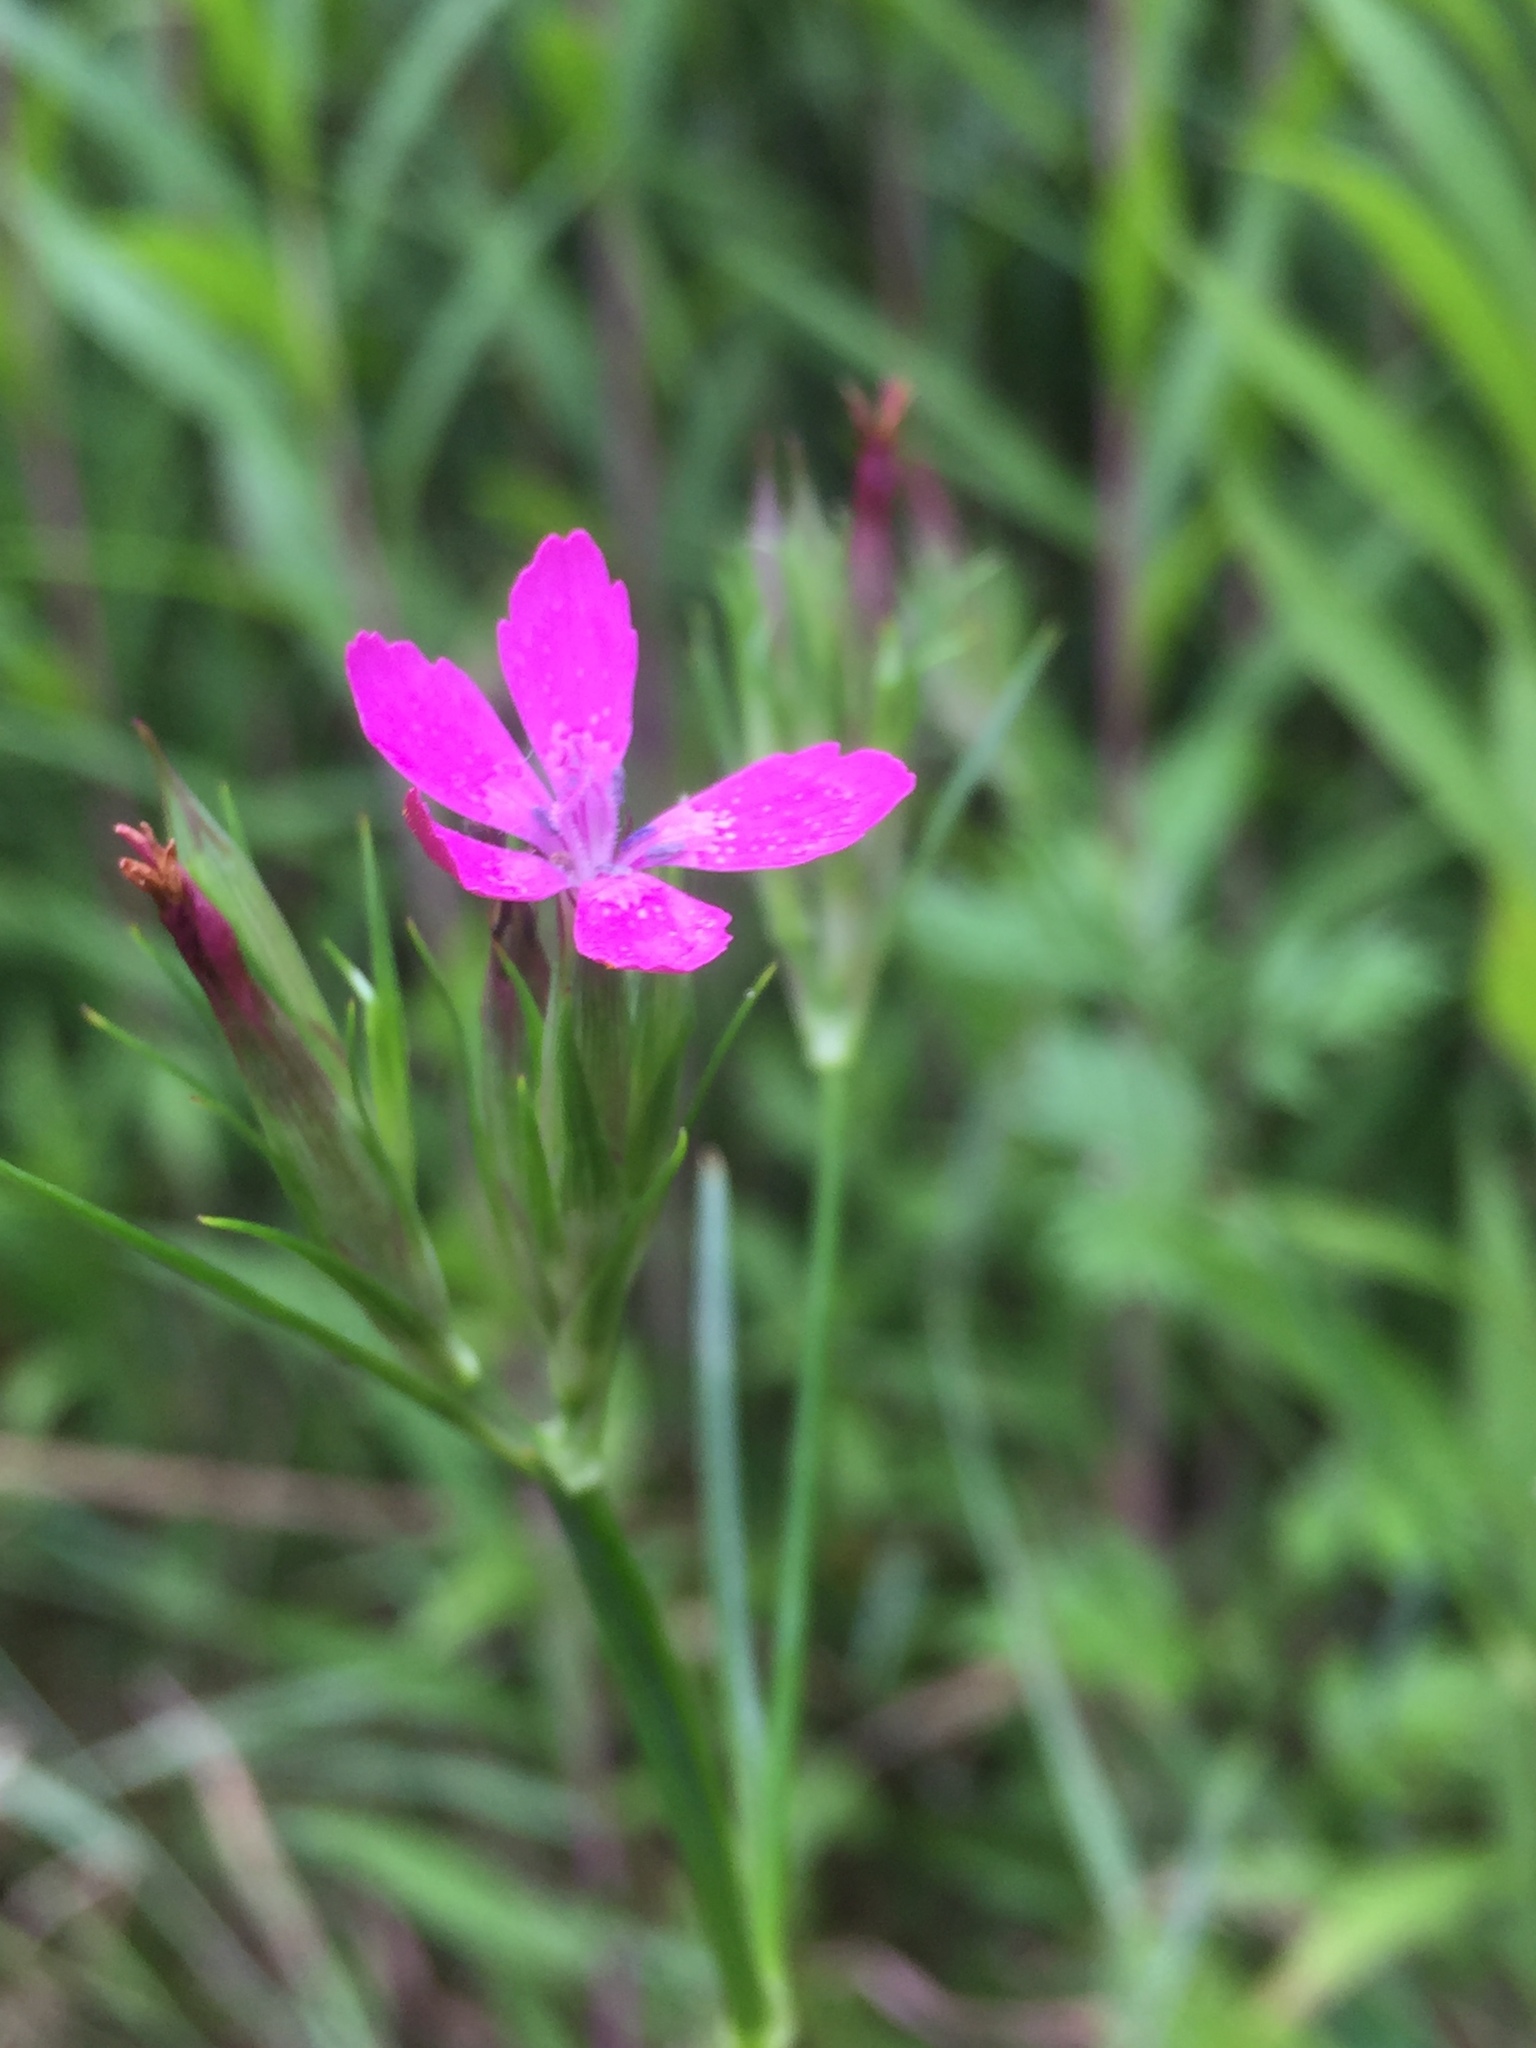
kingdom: Plantae
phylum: Tracheophyta
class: Magnoliopsida
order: Caryophyllales
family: Caryophyllaceae
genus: Dianthus
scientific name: Dianthus armeria
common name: Deptford pink
